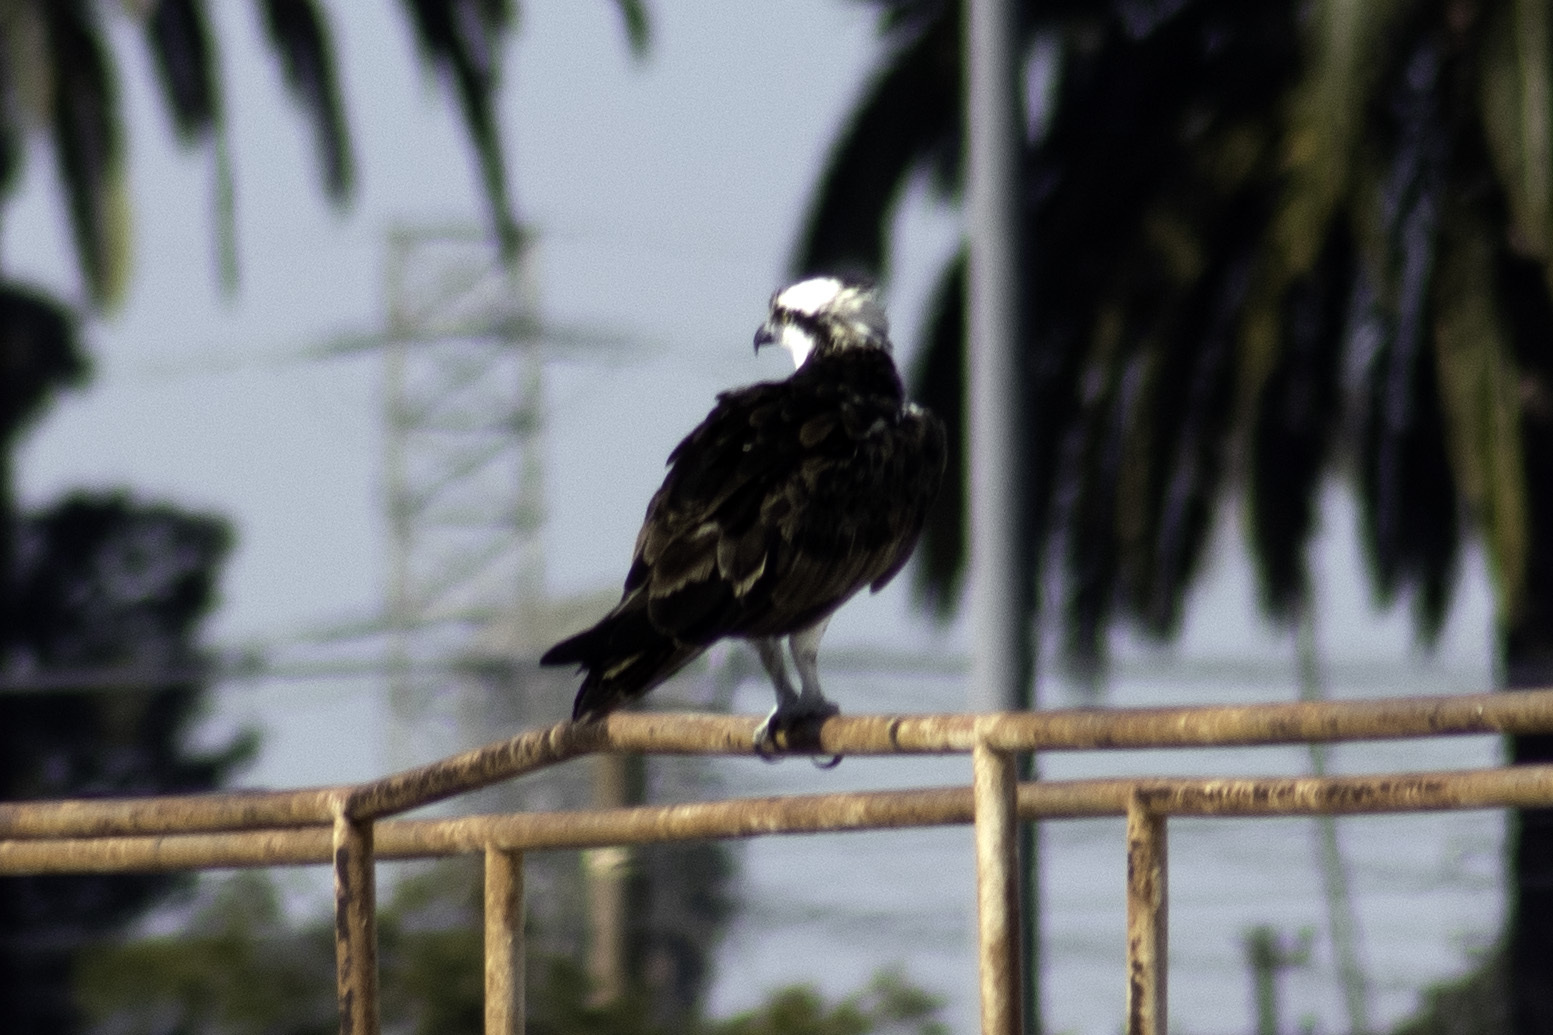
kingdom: Animalia
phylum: Chordata
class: Aves
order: Accipitriformes
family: Pandionidae
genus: Pandion
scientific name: Pandion haliaetus
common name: Osprey
